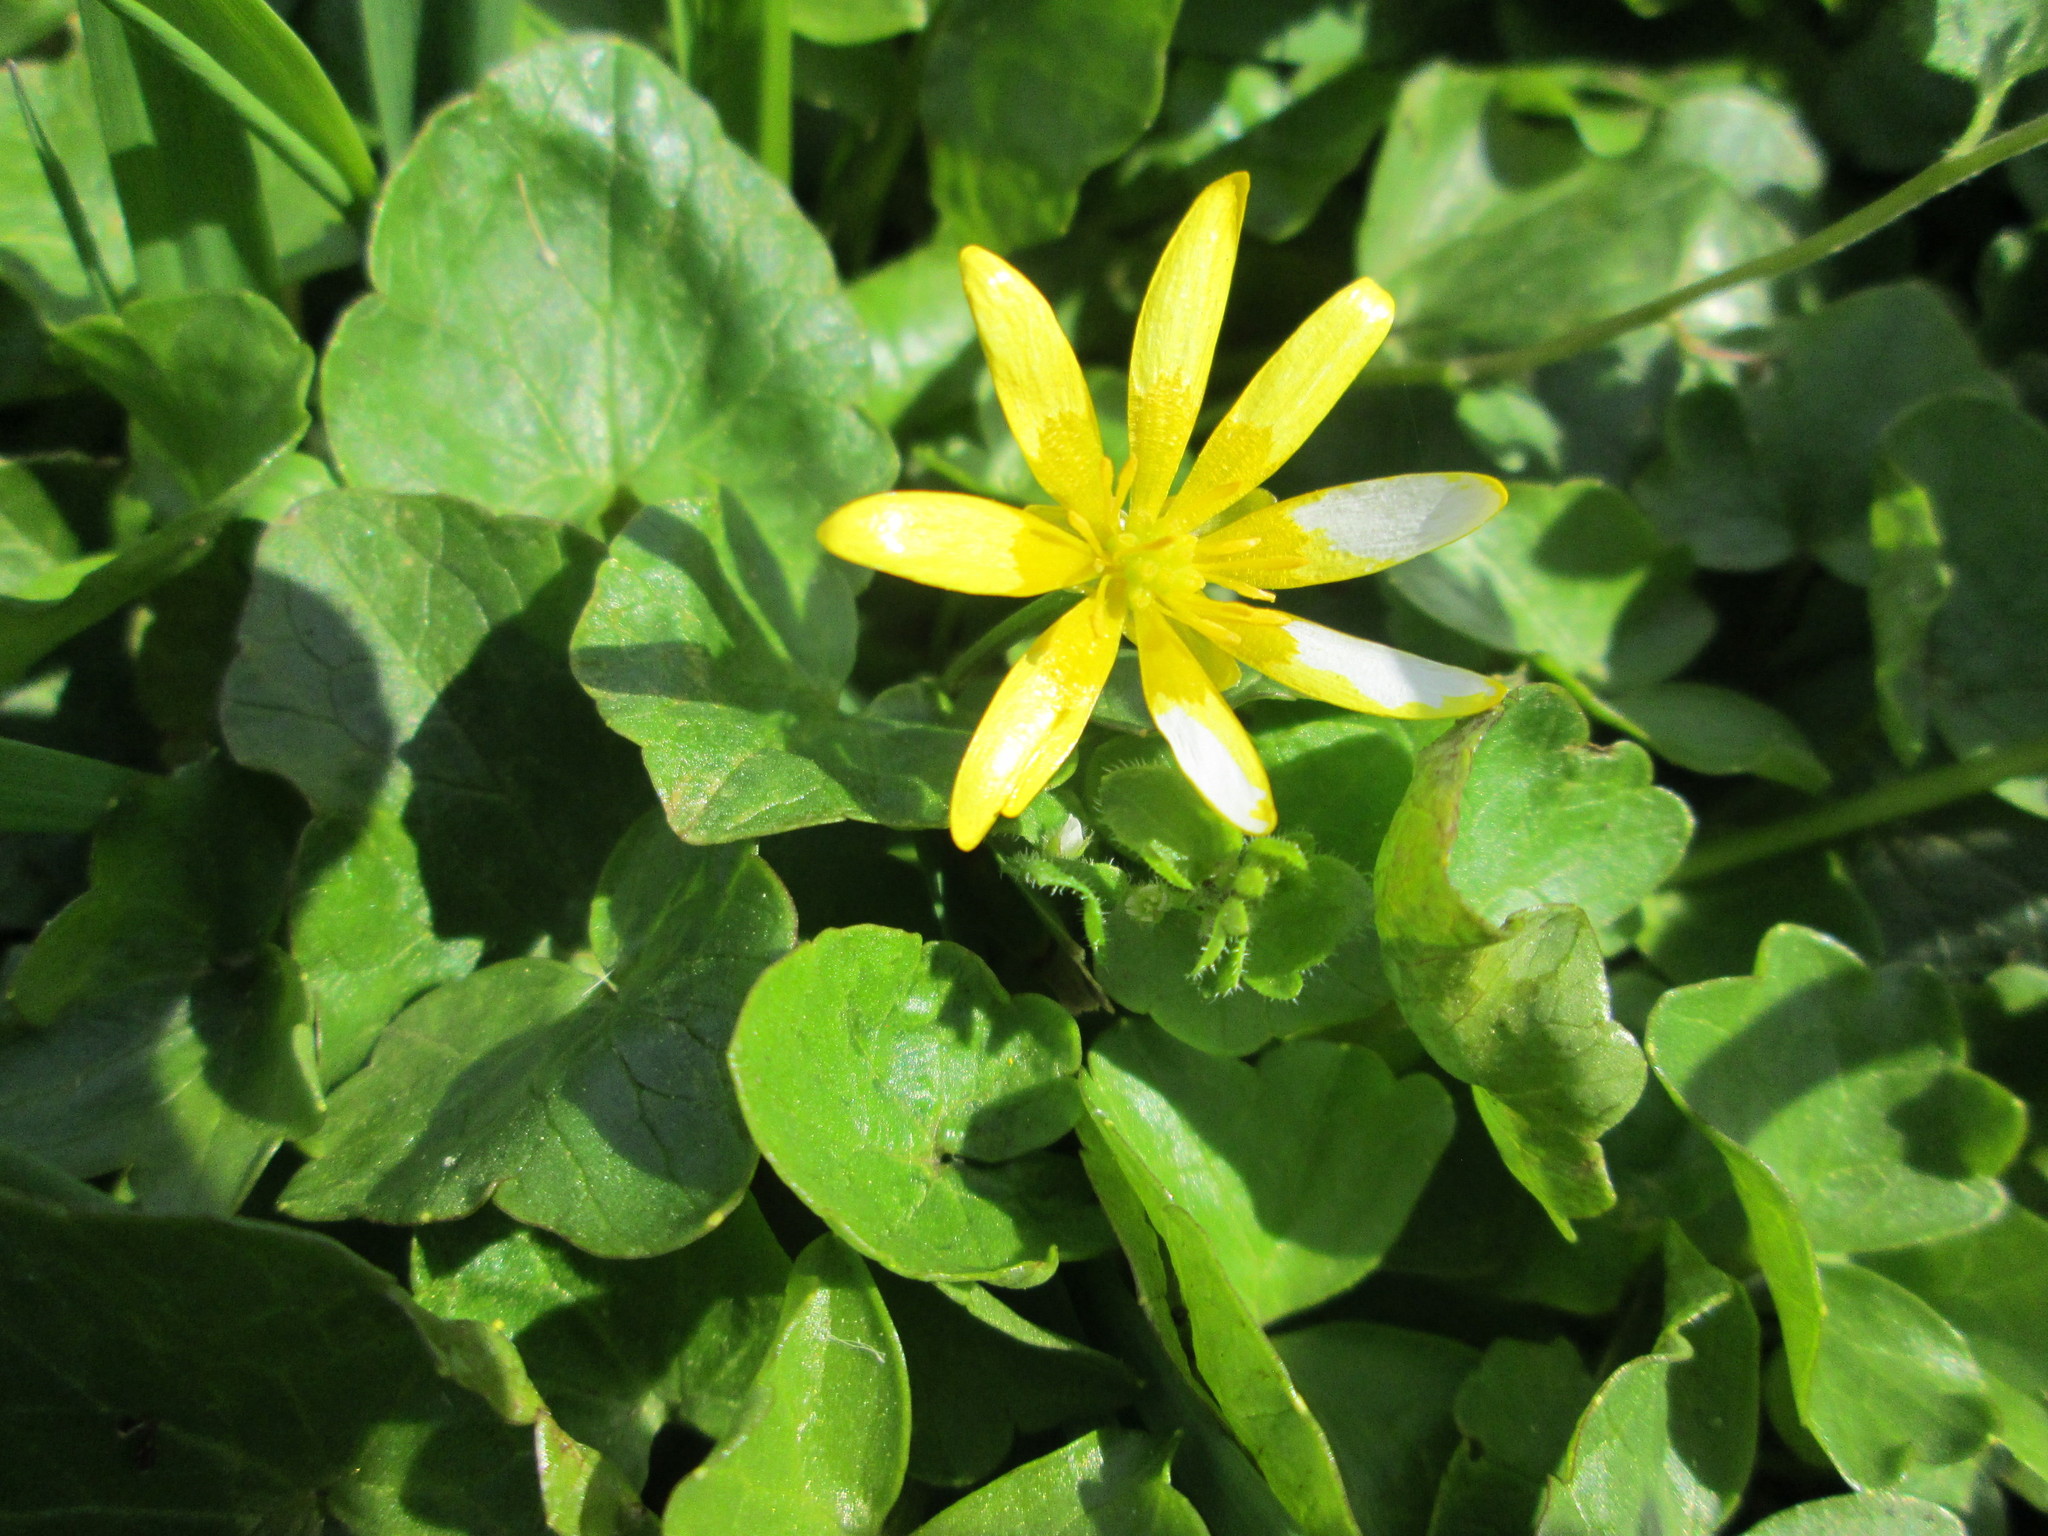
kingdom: Plantae
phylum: Tracheophyta
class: Magnoliopsida
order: Ranunculales
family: Ranunculaceae
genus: Ficaria
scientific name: Ficaria verna
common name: Lesser celandine
